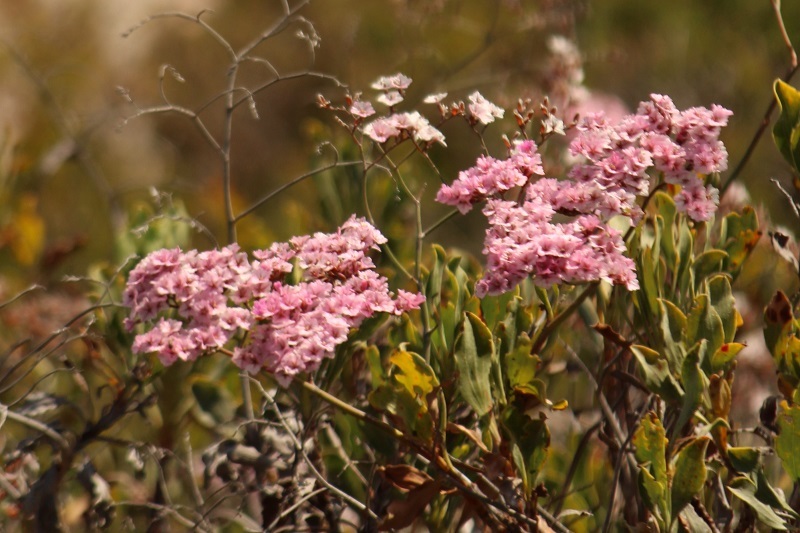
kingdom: Plantae
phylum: Tracheophyta
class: Magnoliopsida
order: Caryophyllales
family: Plumbaginaceae
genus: Limonium
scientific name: Limonium peregrinum
